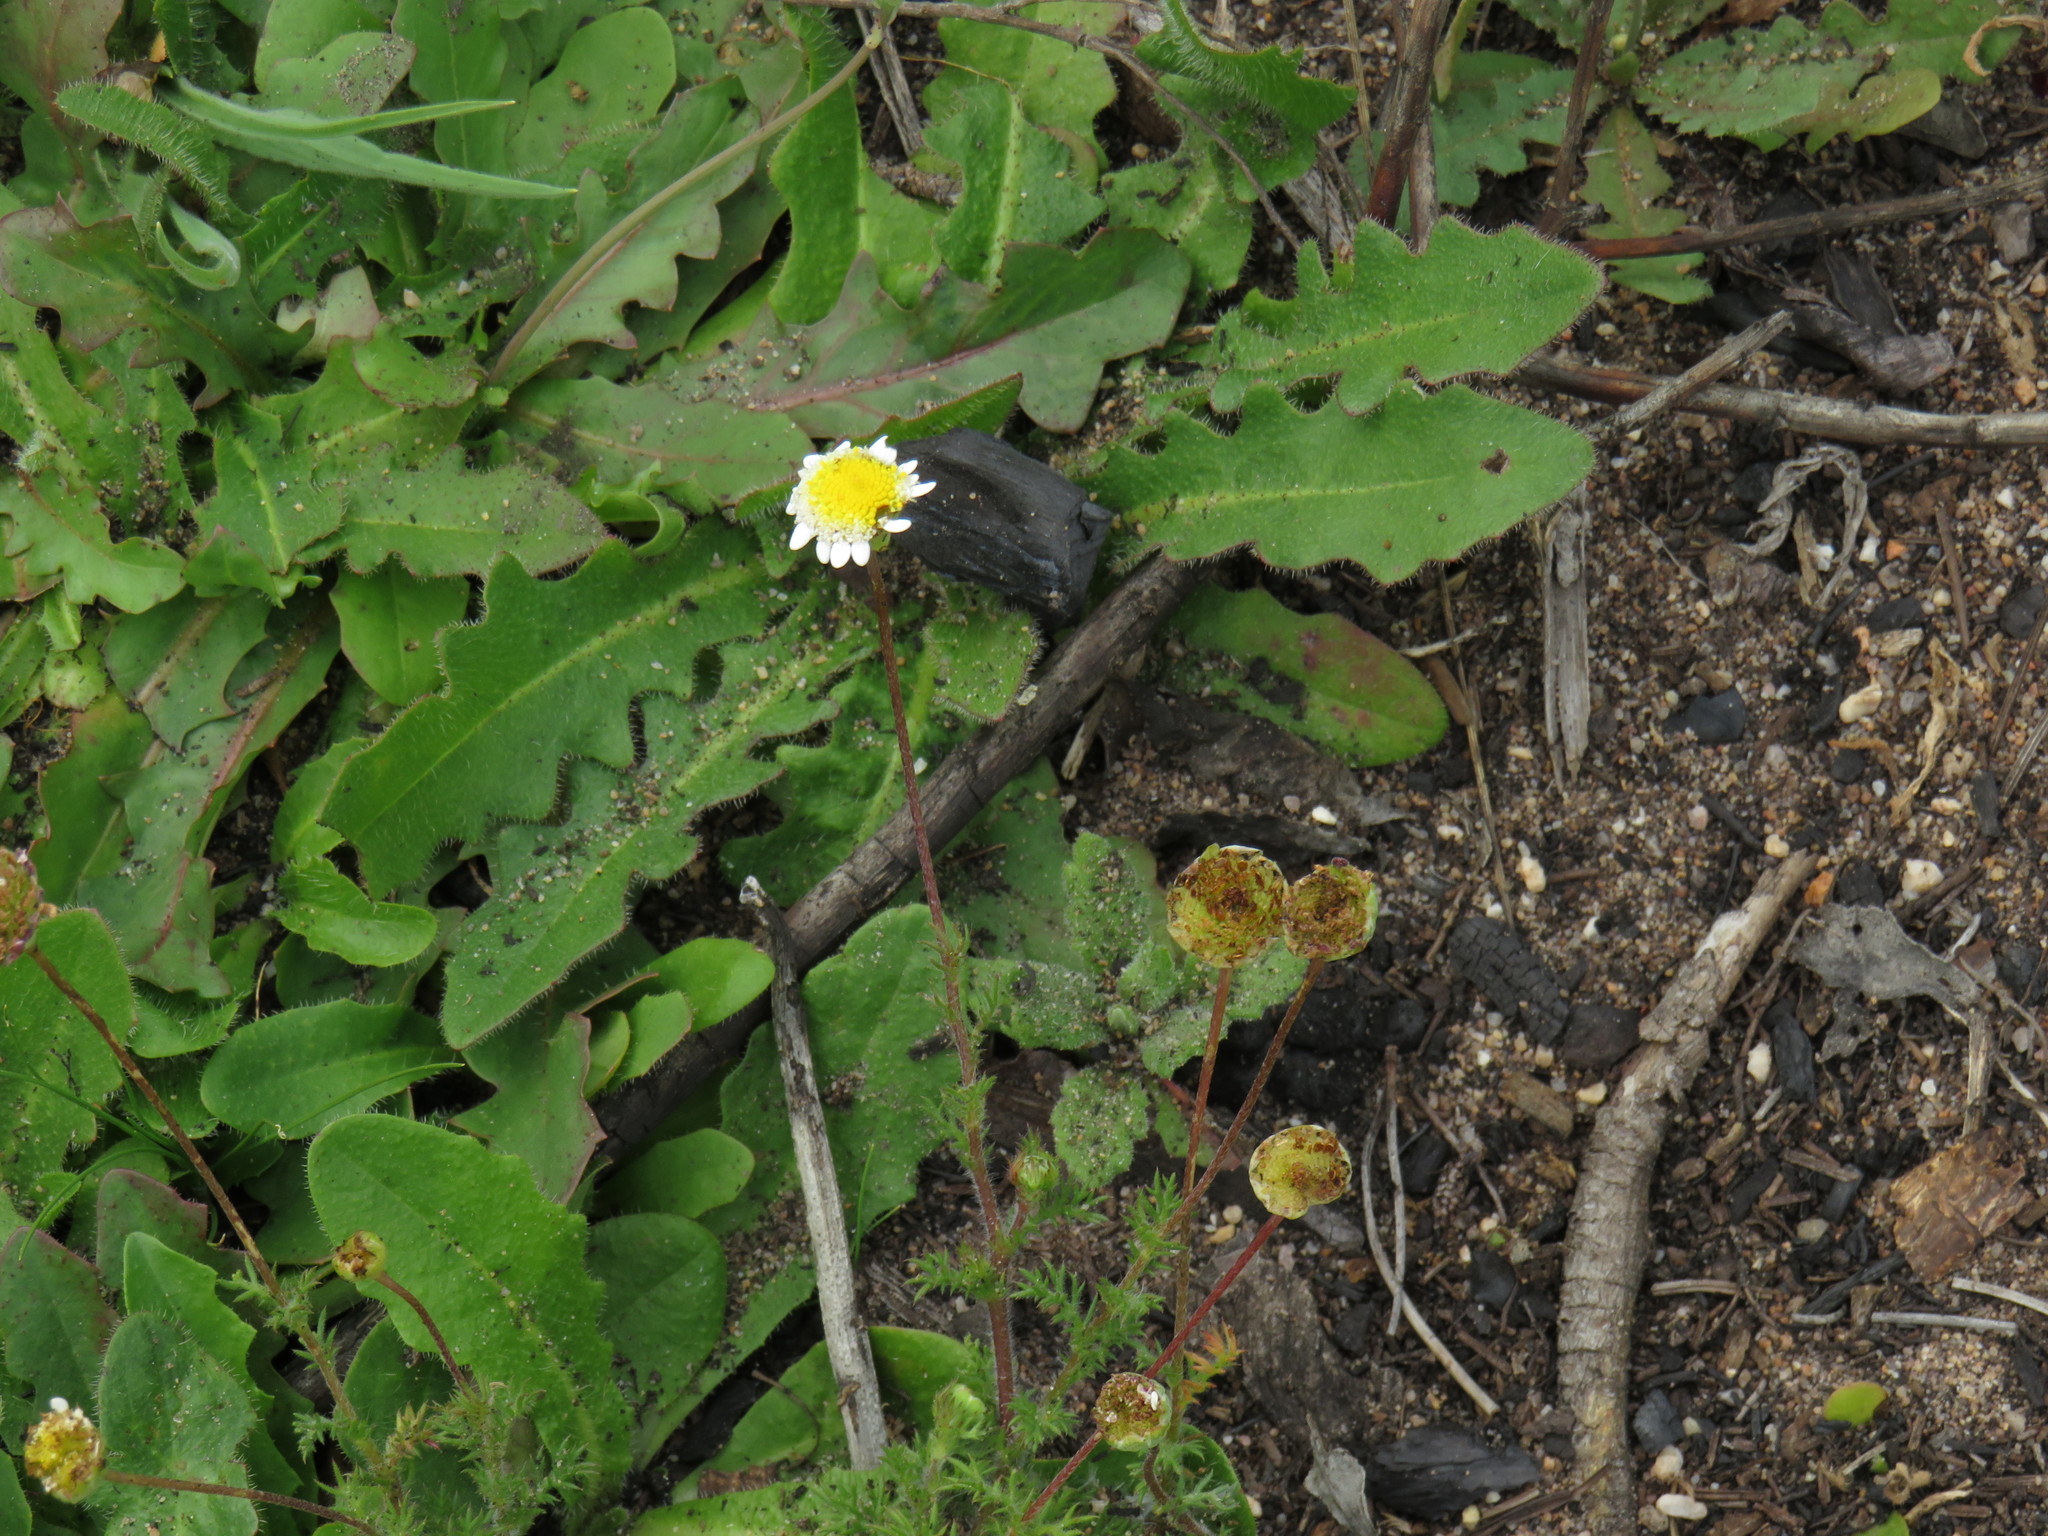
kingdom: Plantae
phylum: Tracheophyta
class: Magnoliopsida
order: Asterales
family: Asteraceae
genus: Cotula
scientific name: Cotula turbinata
